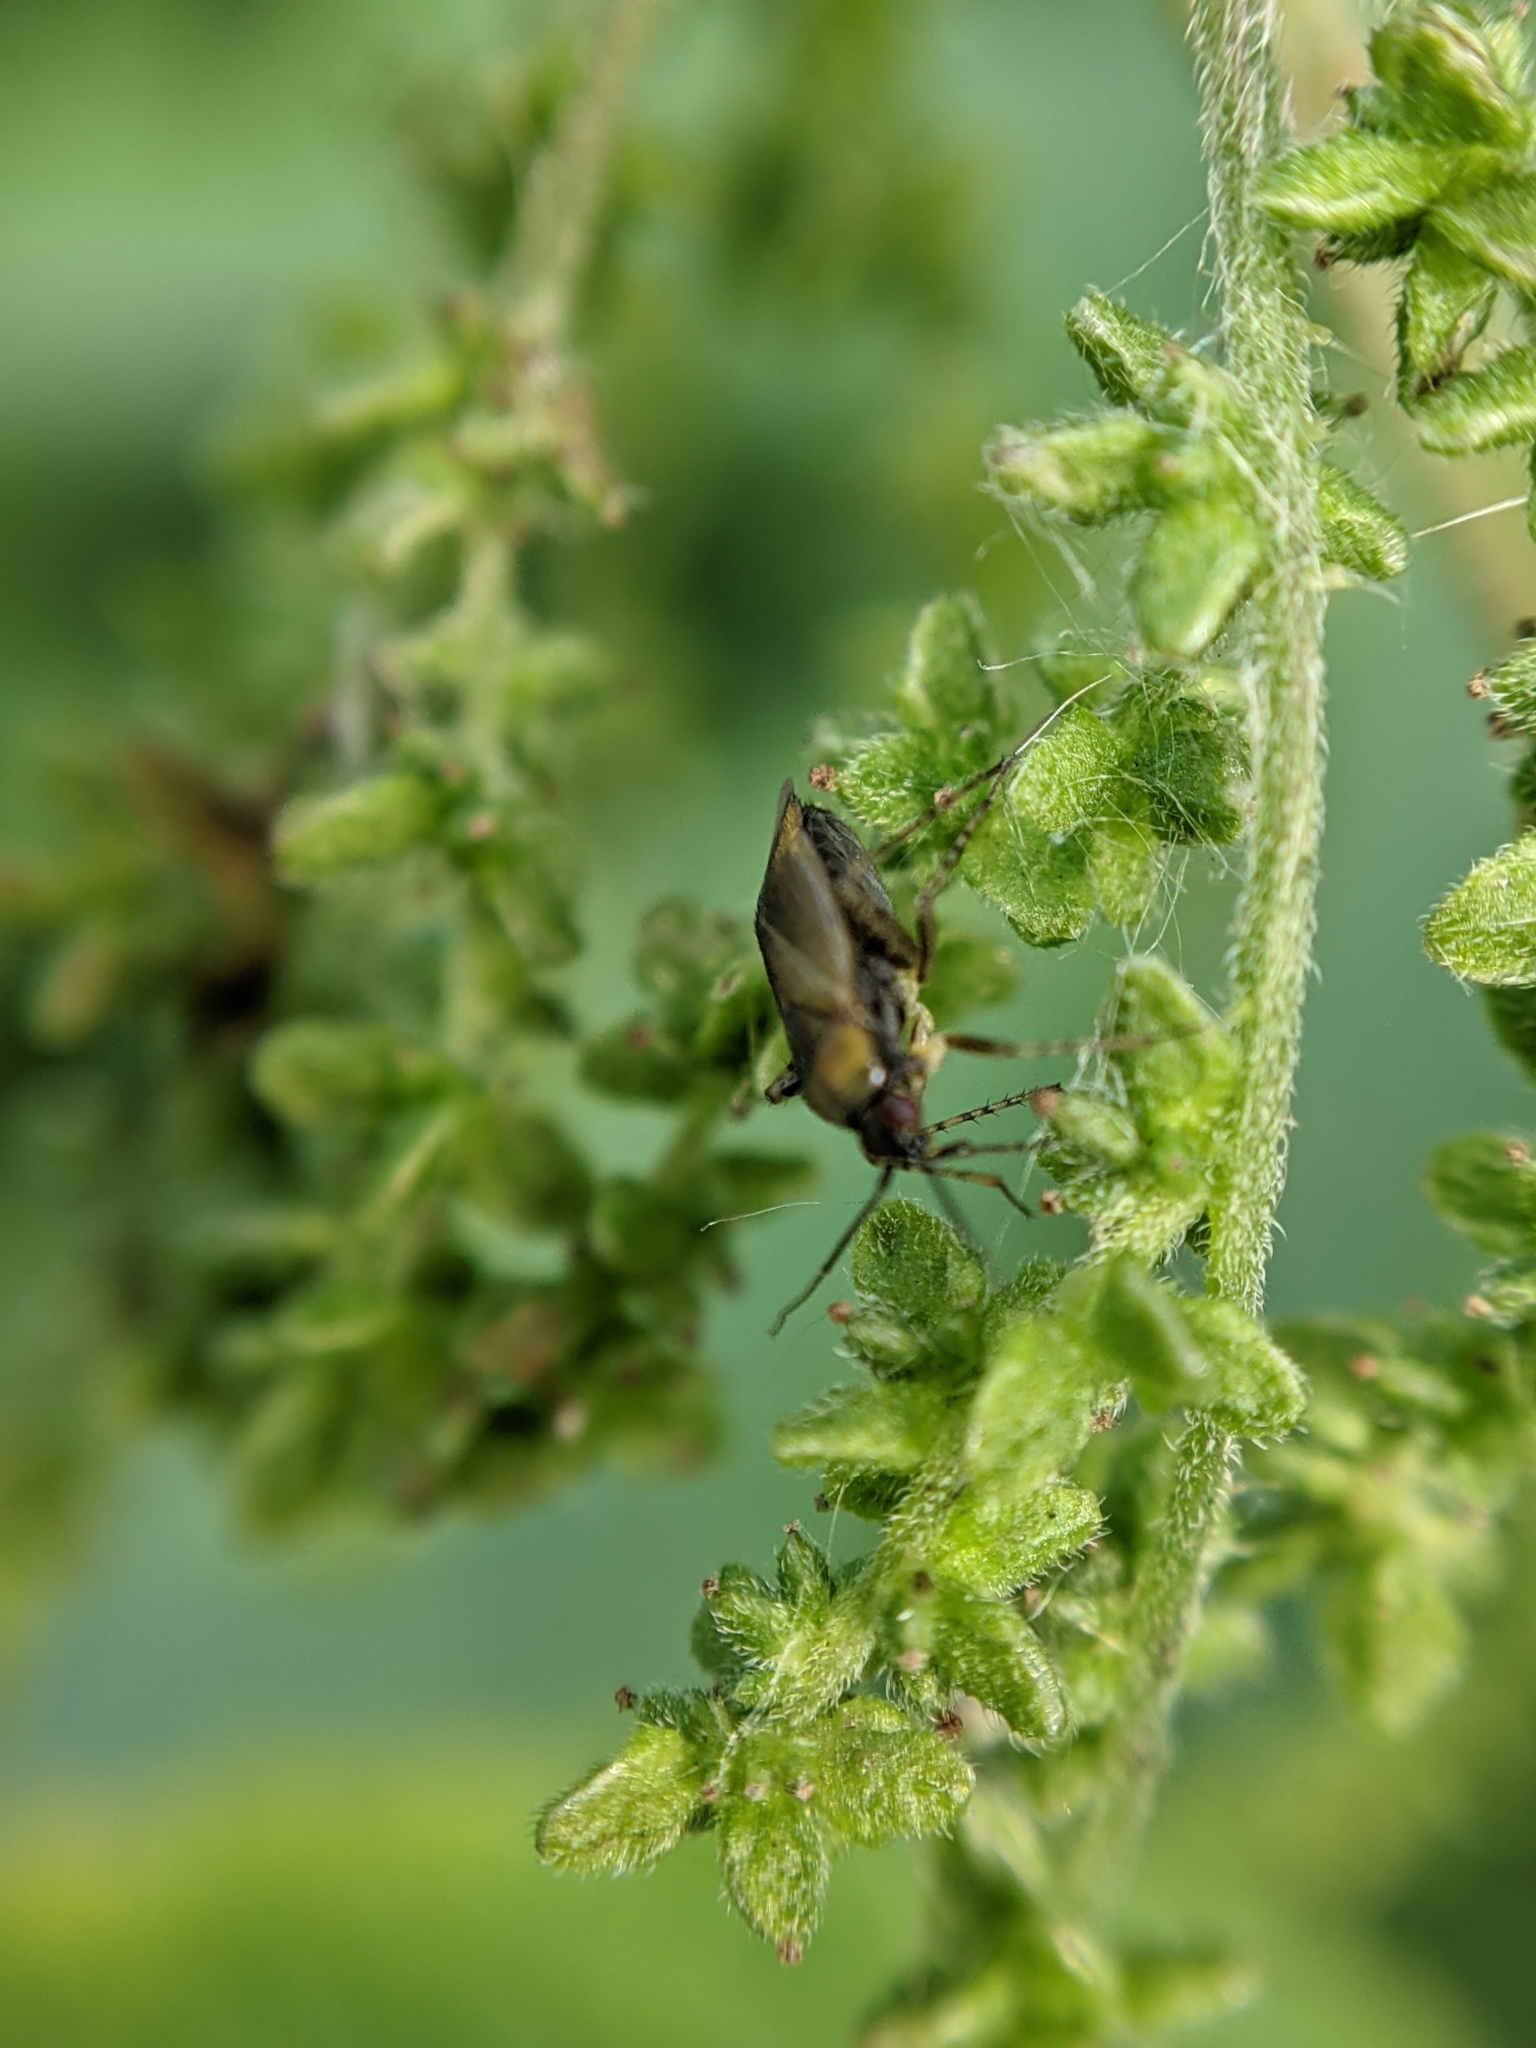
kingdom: Animalia
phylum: Arthropoda
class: Insecta
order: Hemiptera
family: Miridae
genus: Plagiognathus
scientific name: Plagiognathus arbustorum
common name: Plant bug
